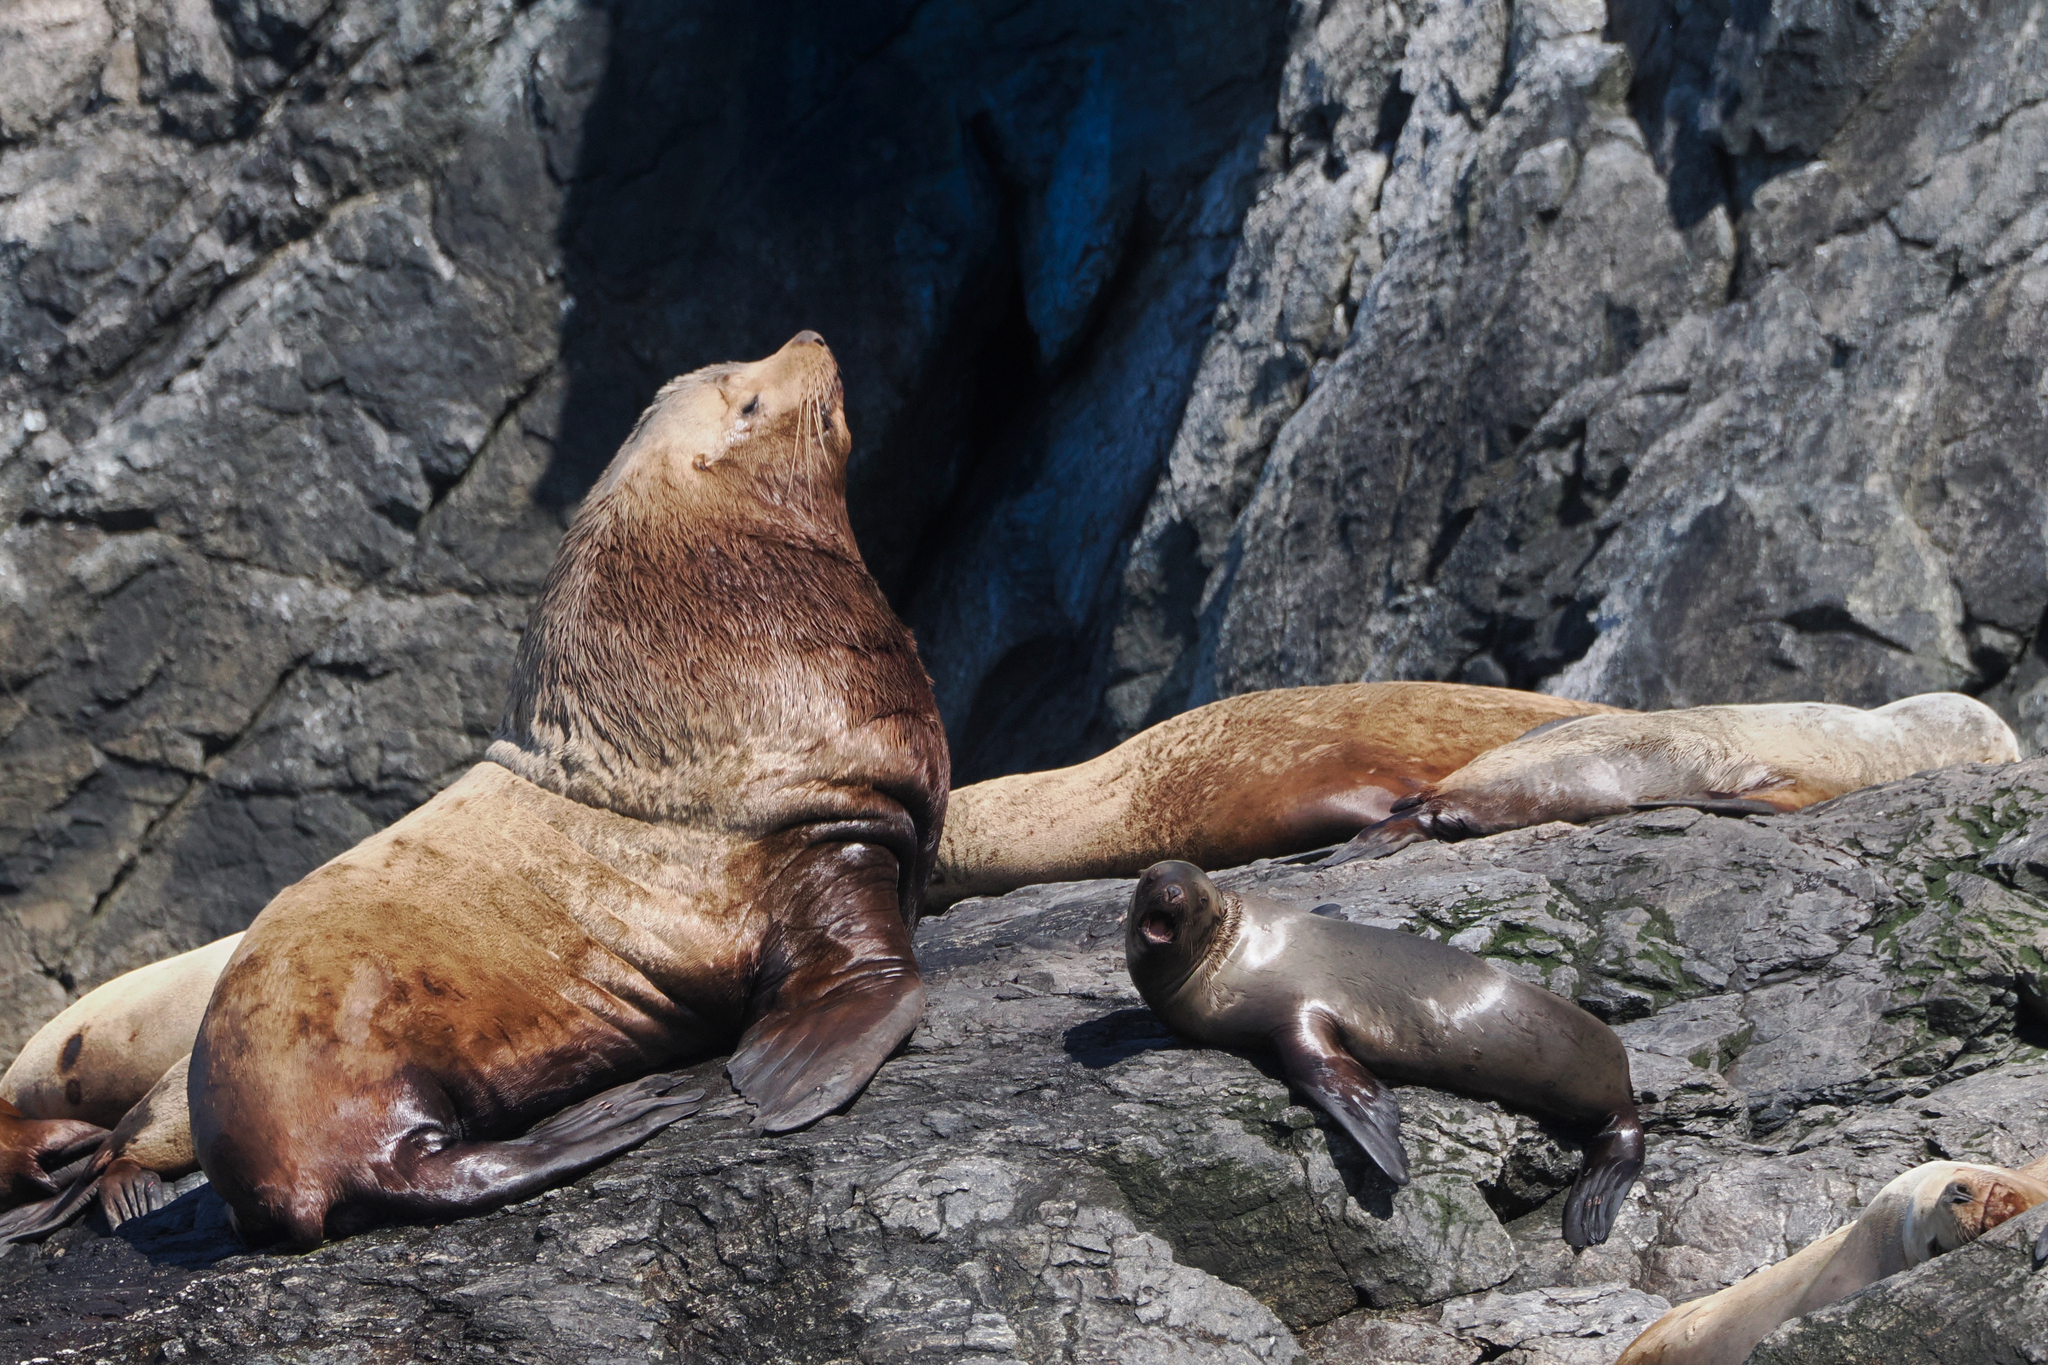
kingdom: Animalia
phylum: Chordata
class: Mammalia
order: Carnivora
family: Otariidae
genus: Eumetopias
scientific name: Eumetopias jubatus
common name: Steller sea lion
